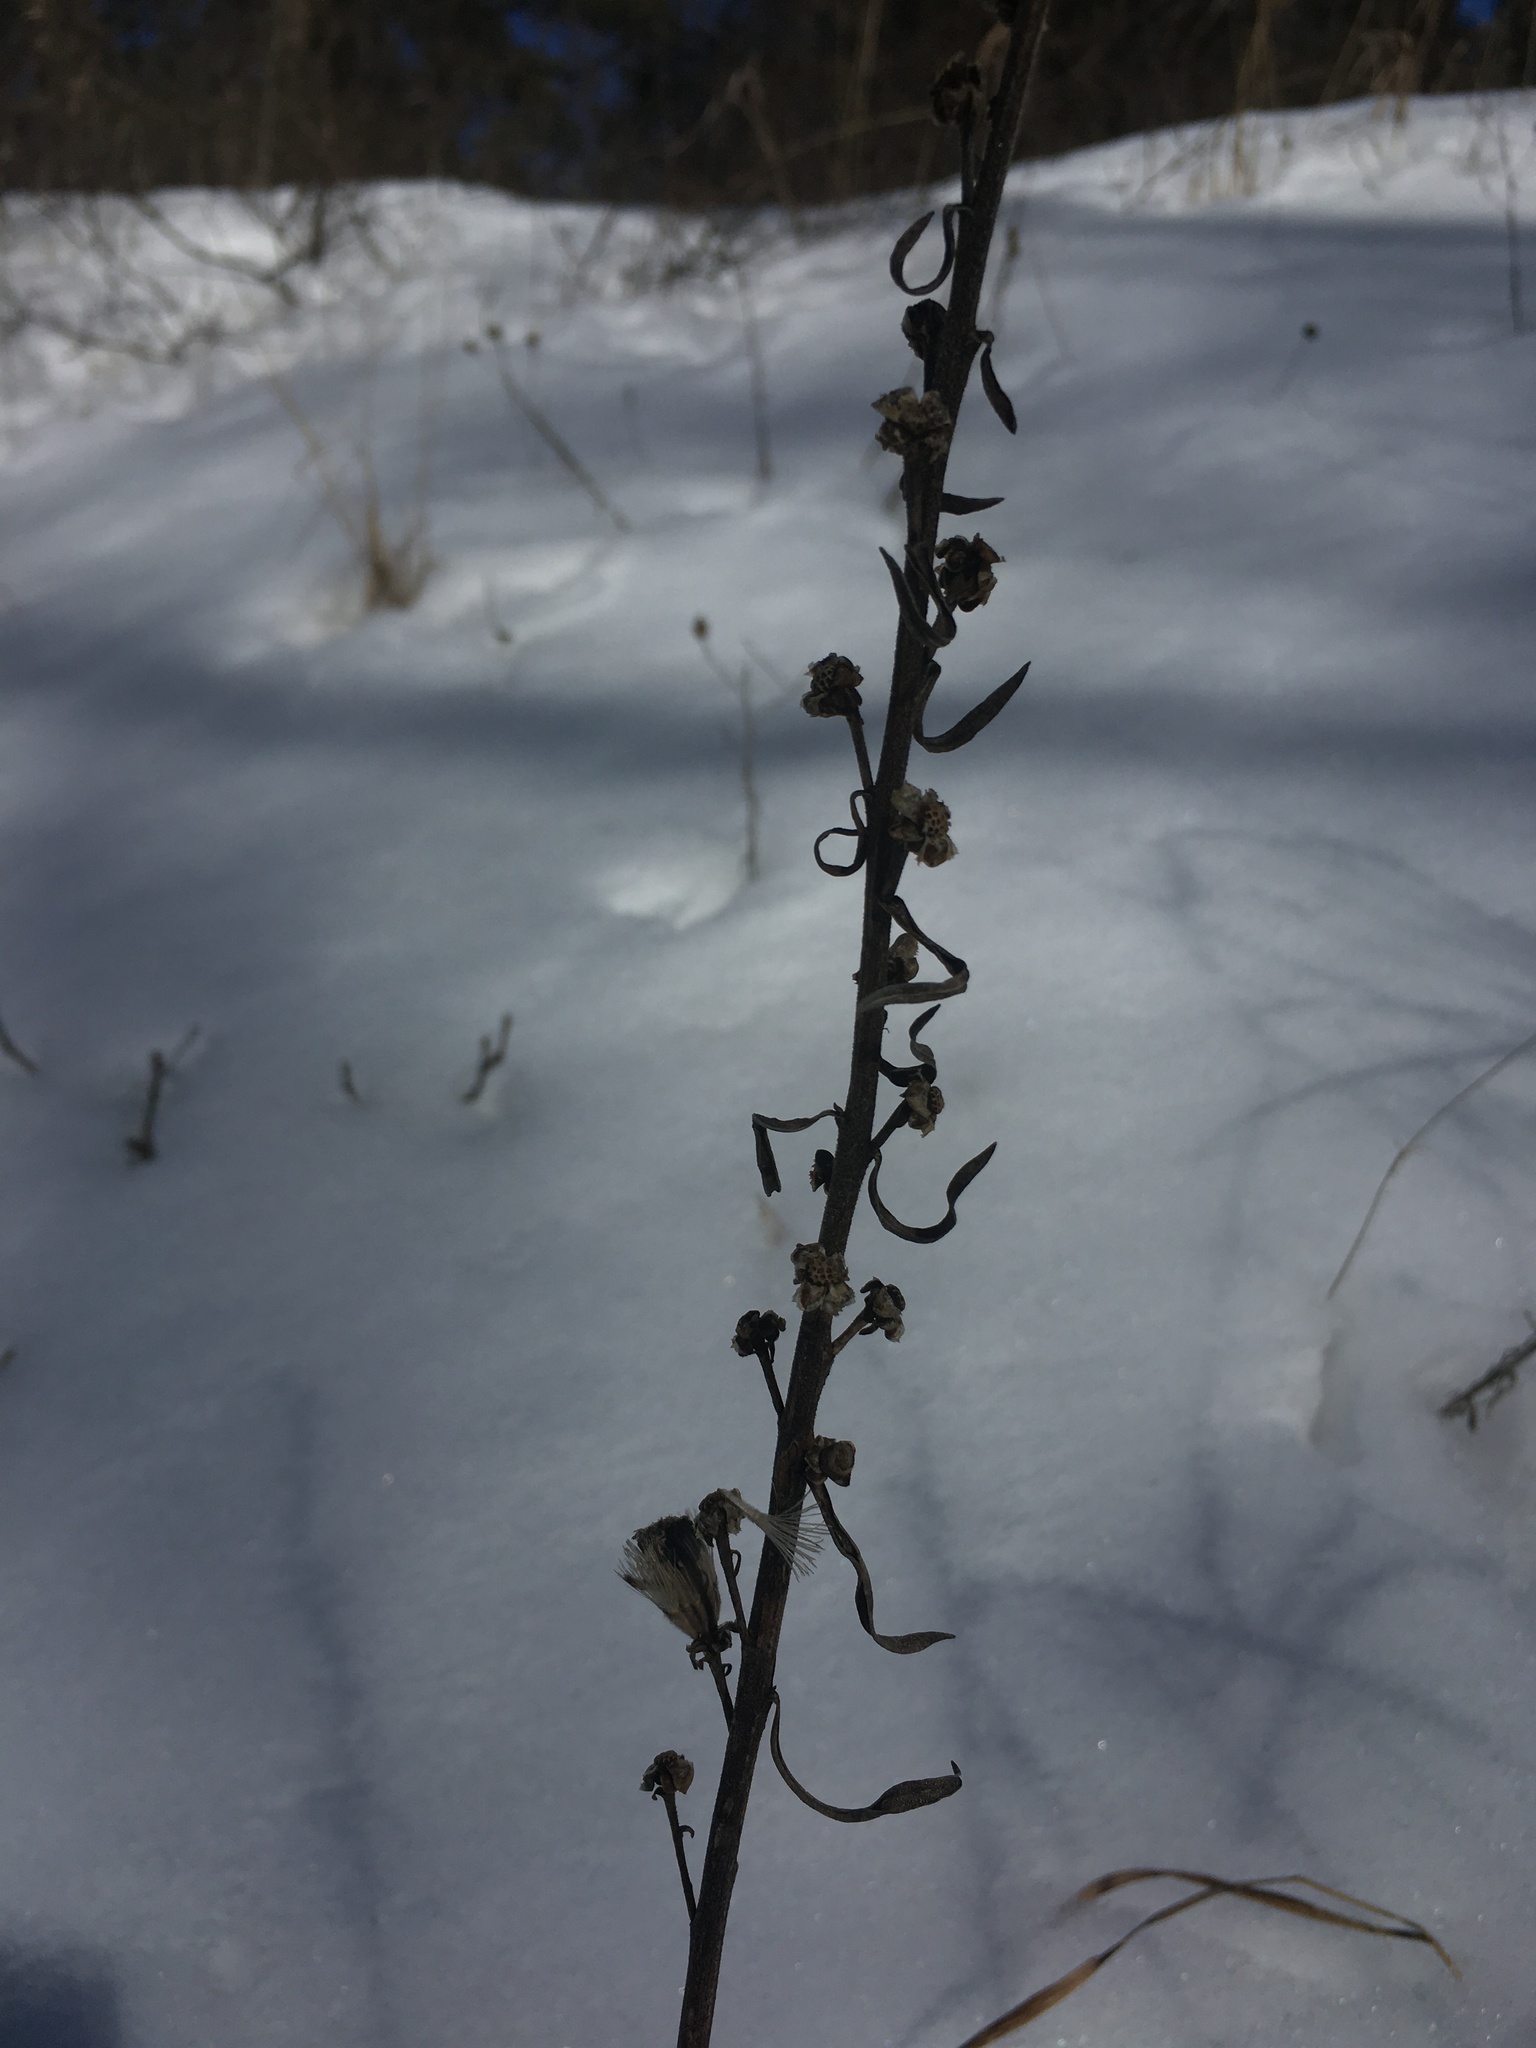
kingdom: Plantae
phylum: Tracheophyta
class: Magnoliopsida
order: Asterales
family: Asteraceae
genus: Liatris
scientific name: Liatris aspera
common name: Lacerate blazing-star
